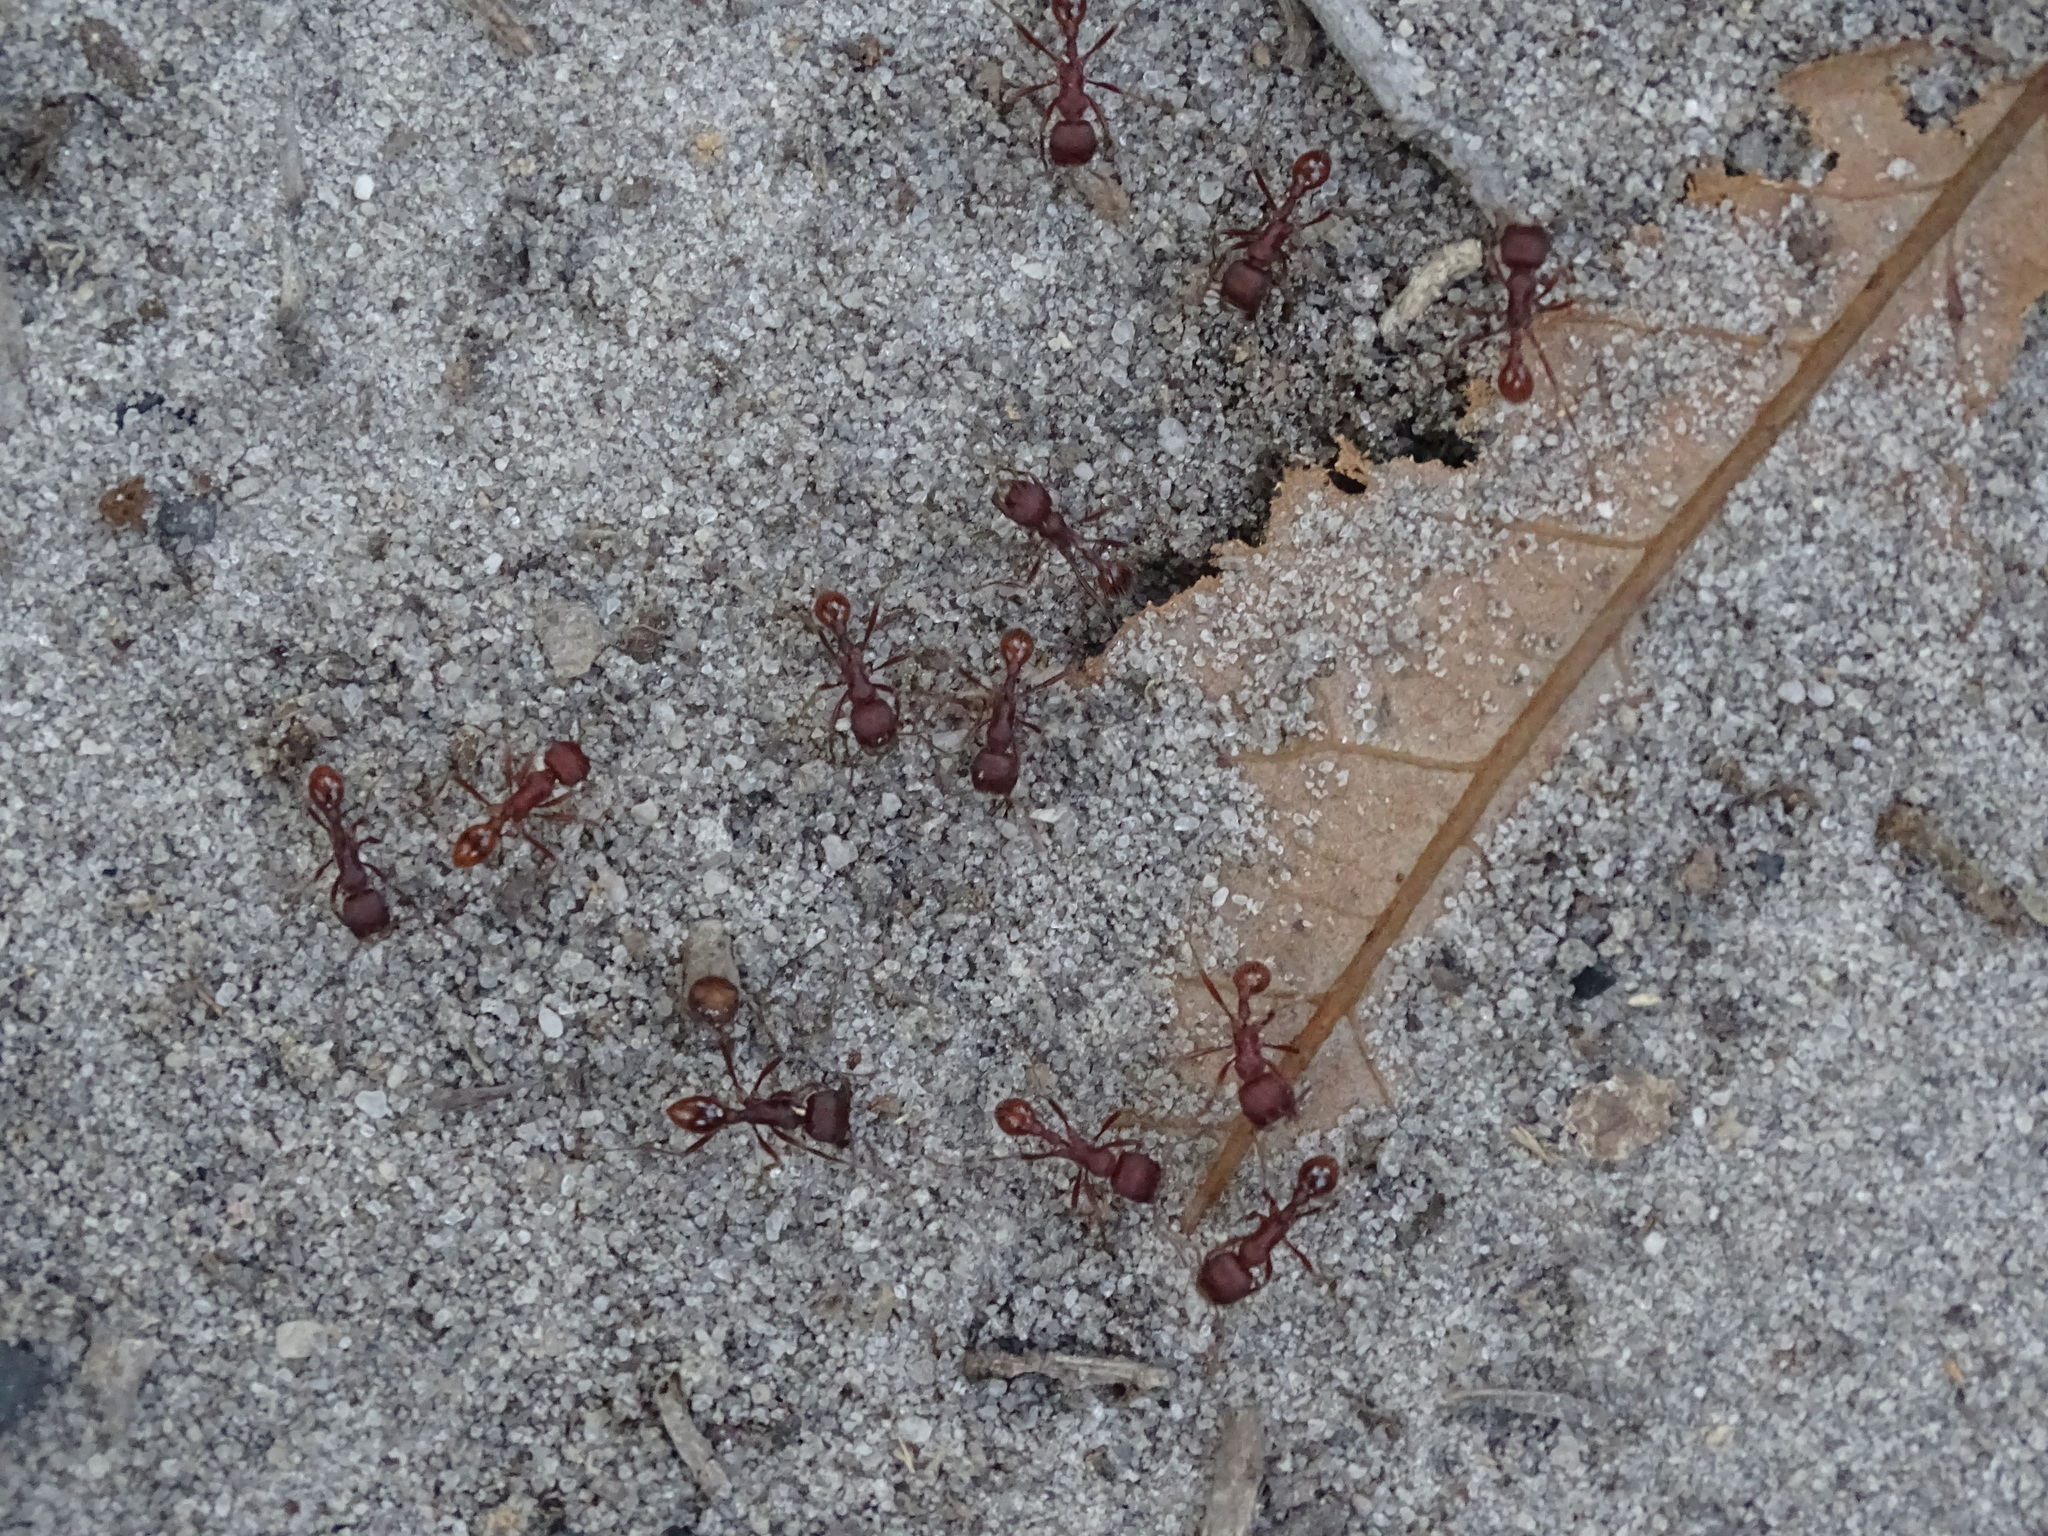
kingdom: Animalia
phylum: Arthropoda
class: Insecta
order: Hymenoptera
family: Formicidae
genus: Pogonomyrmex
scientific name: Pogonomyrmex badius
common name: Florida harvester ant
